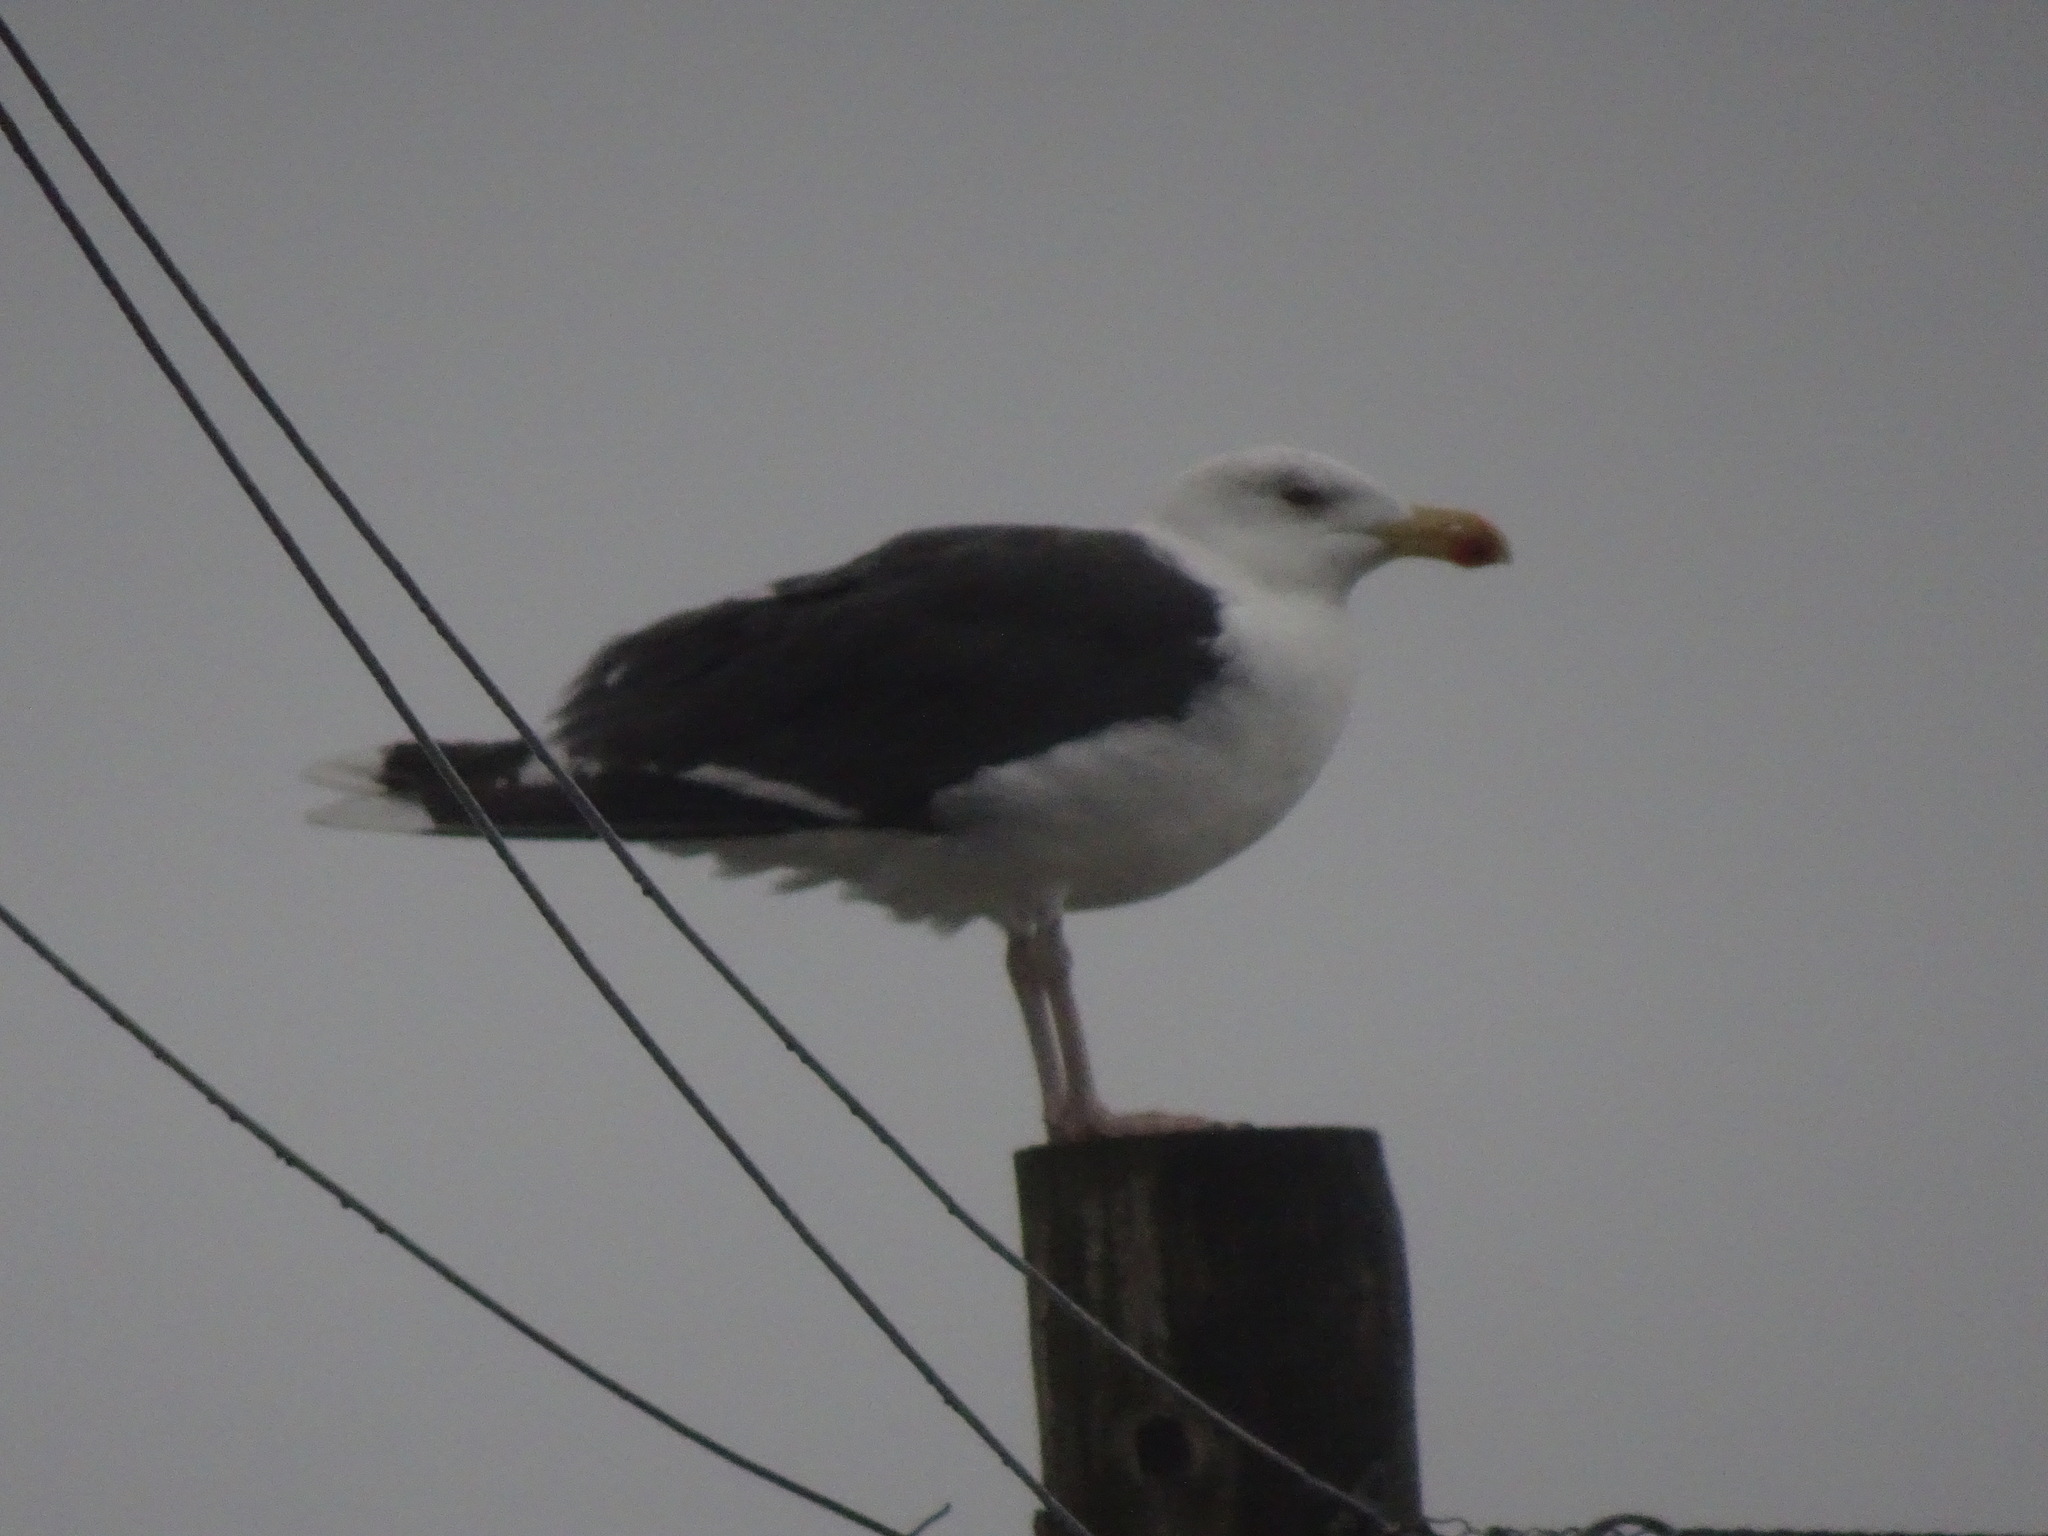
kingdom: Animalia
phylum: Chordata
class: Aves
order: Charadriiformes
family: Laridae
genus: Larus
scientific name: Larus marinus
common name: Great black-backed gull
